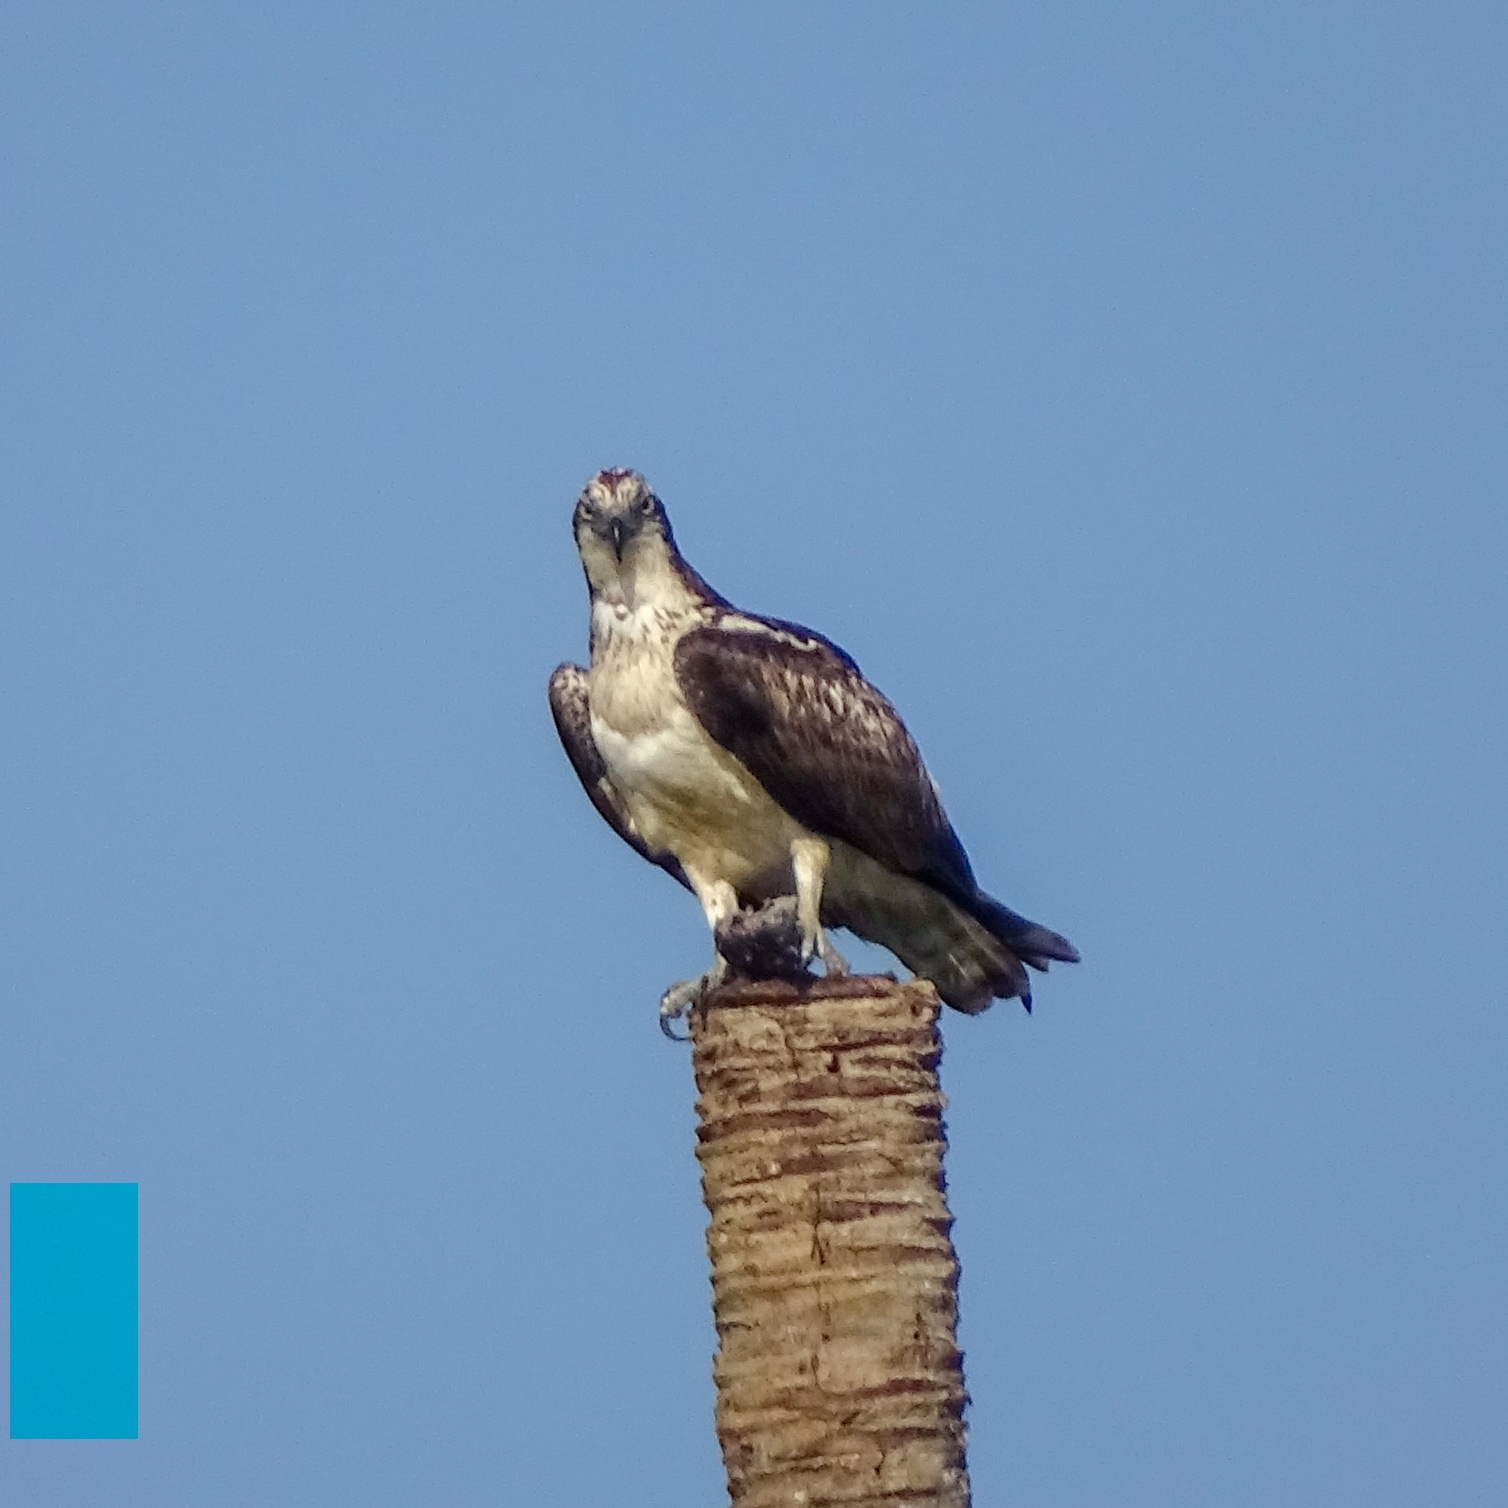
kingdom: Animalia
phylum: Chordata
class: Aves
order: Accipitriformes
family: Pandionidae
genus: Pandion
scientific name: Pandion haliaetus
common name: Osprey
